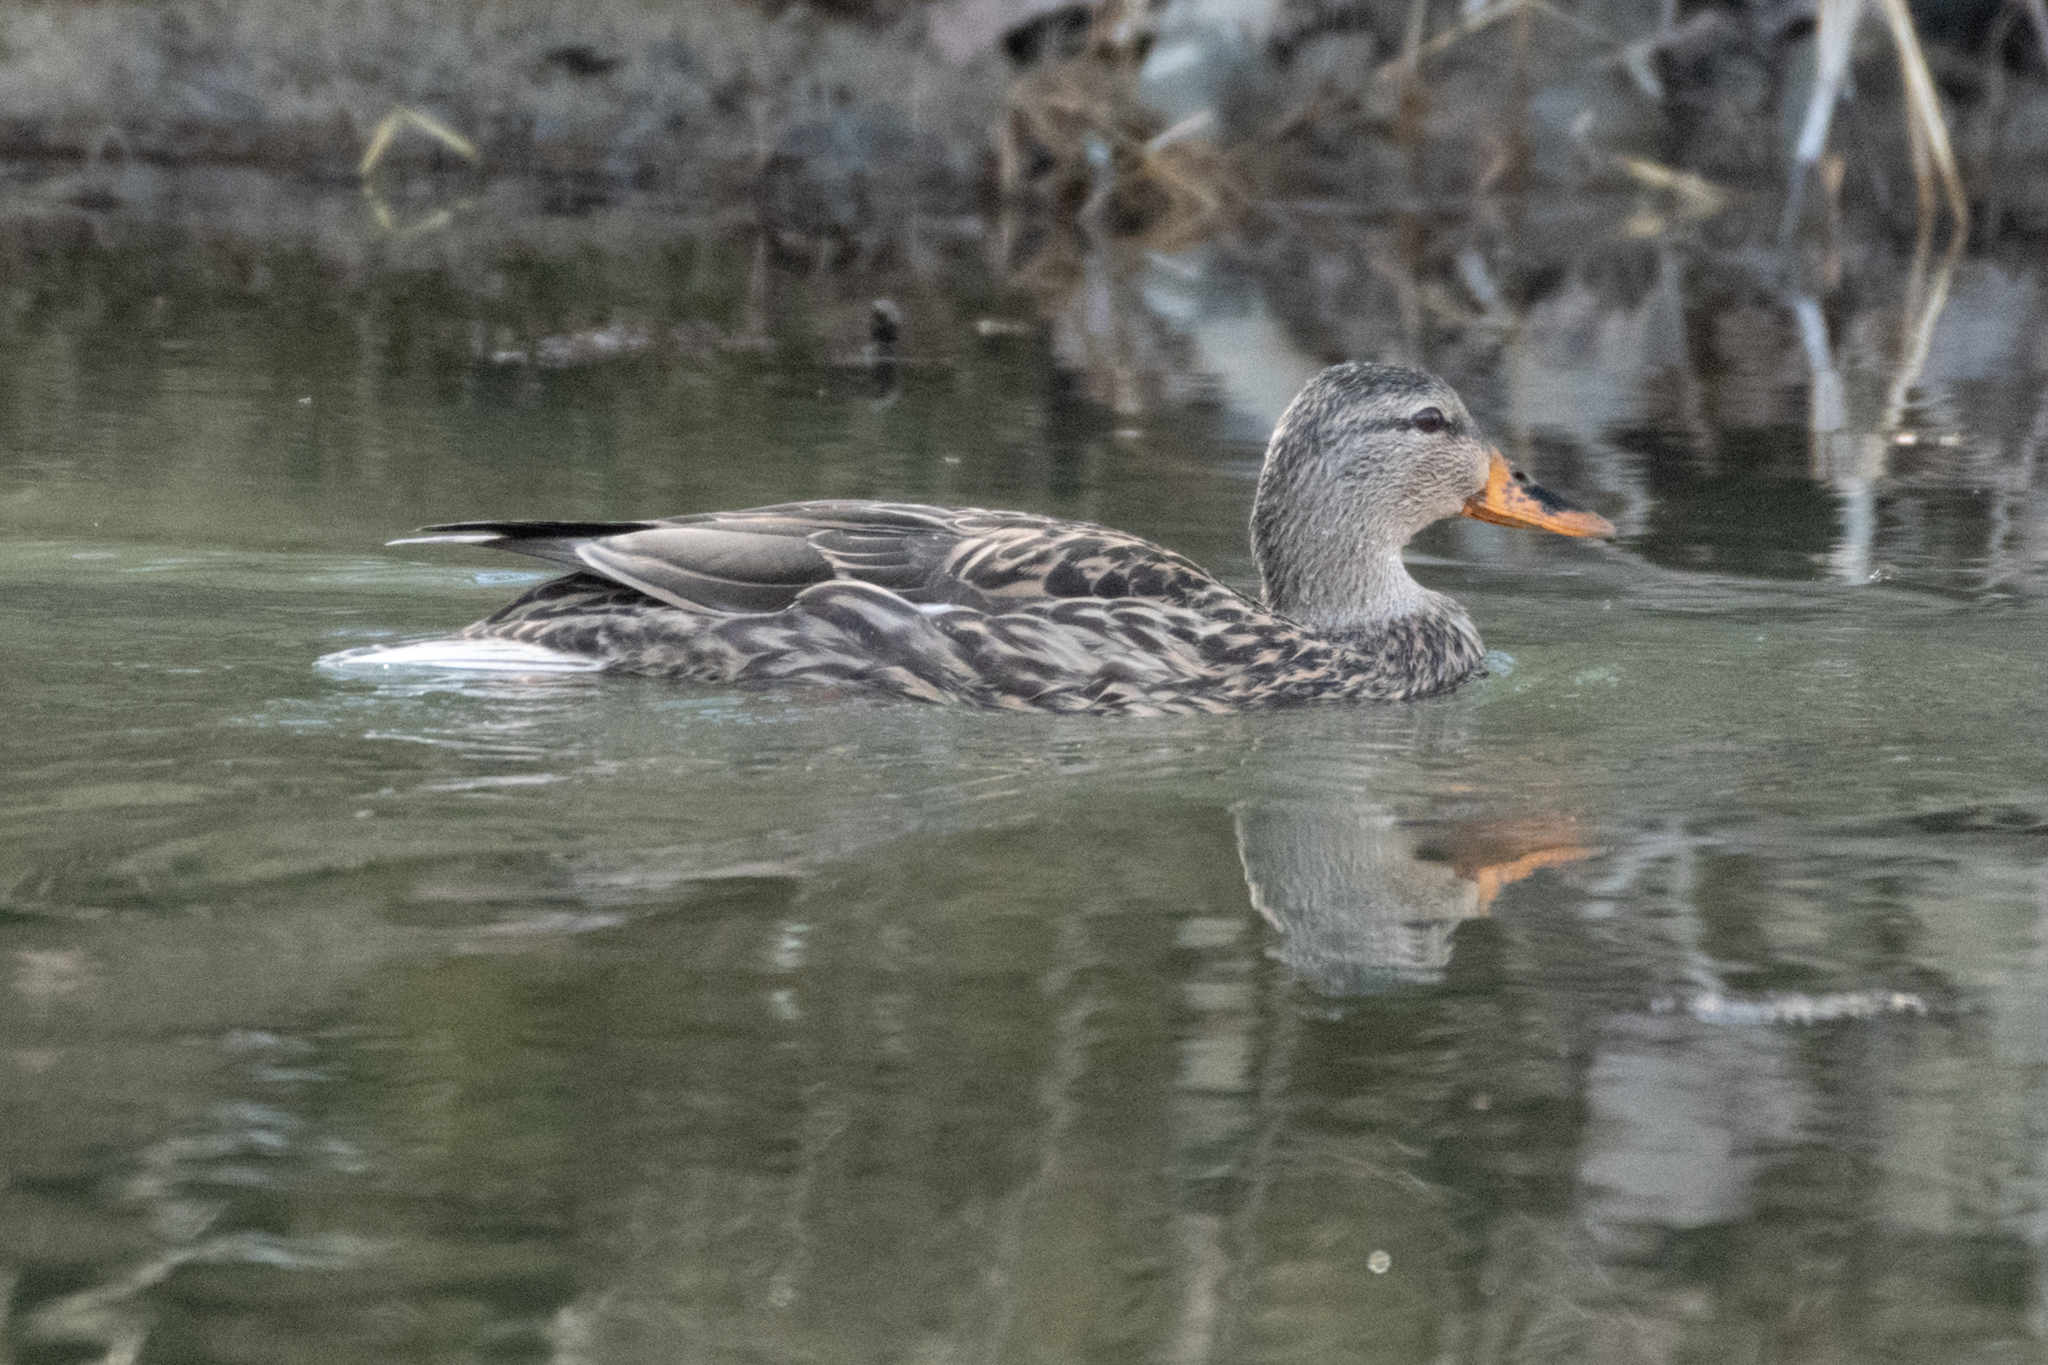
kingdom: Animalia
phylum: Chordata
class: Aves
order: Anseriformes
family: Anatidae
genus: Anas
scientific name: Anas platyrhynchos
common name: Mallard
